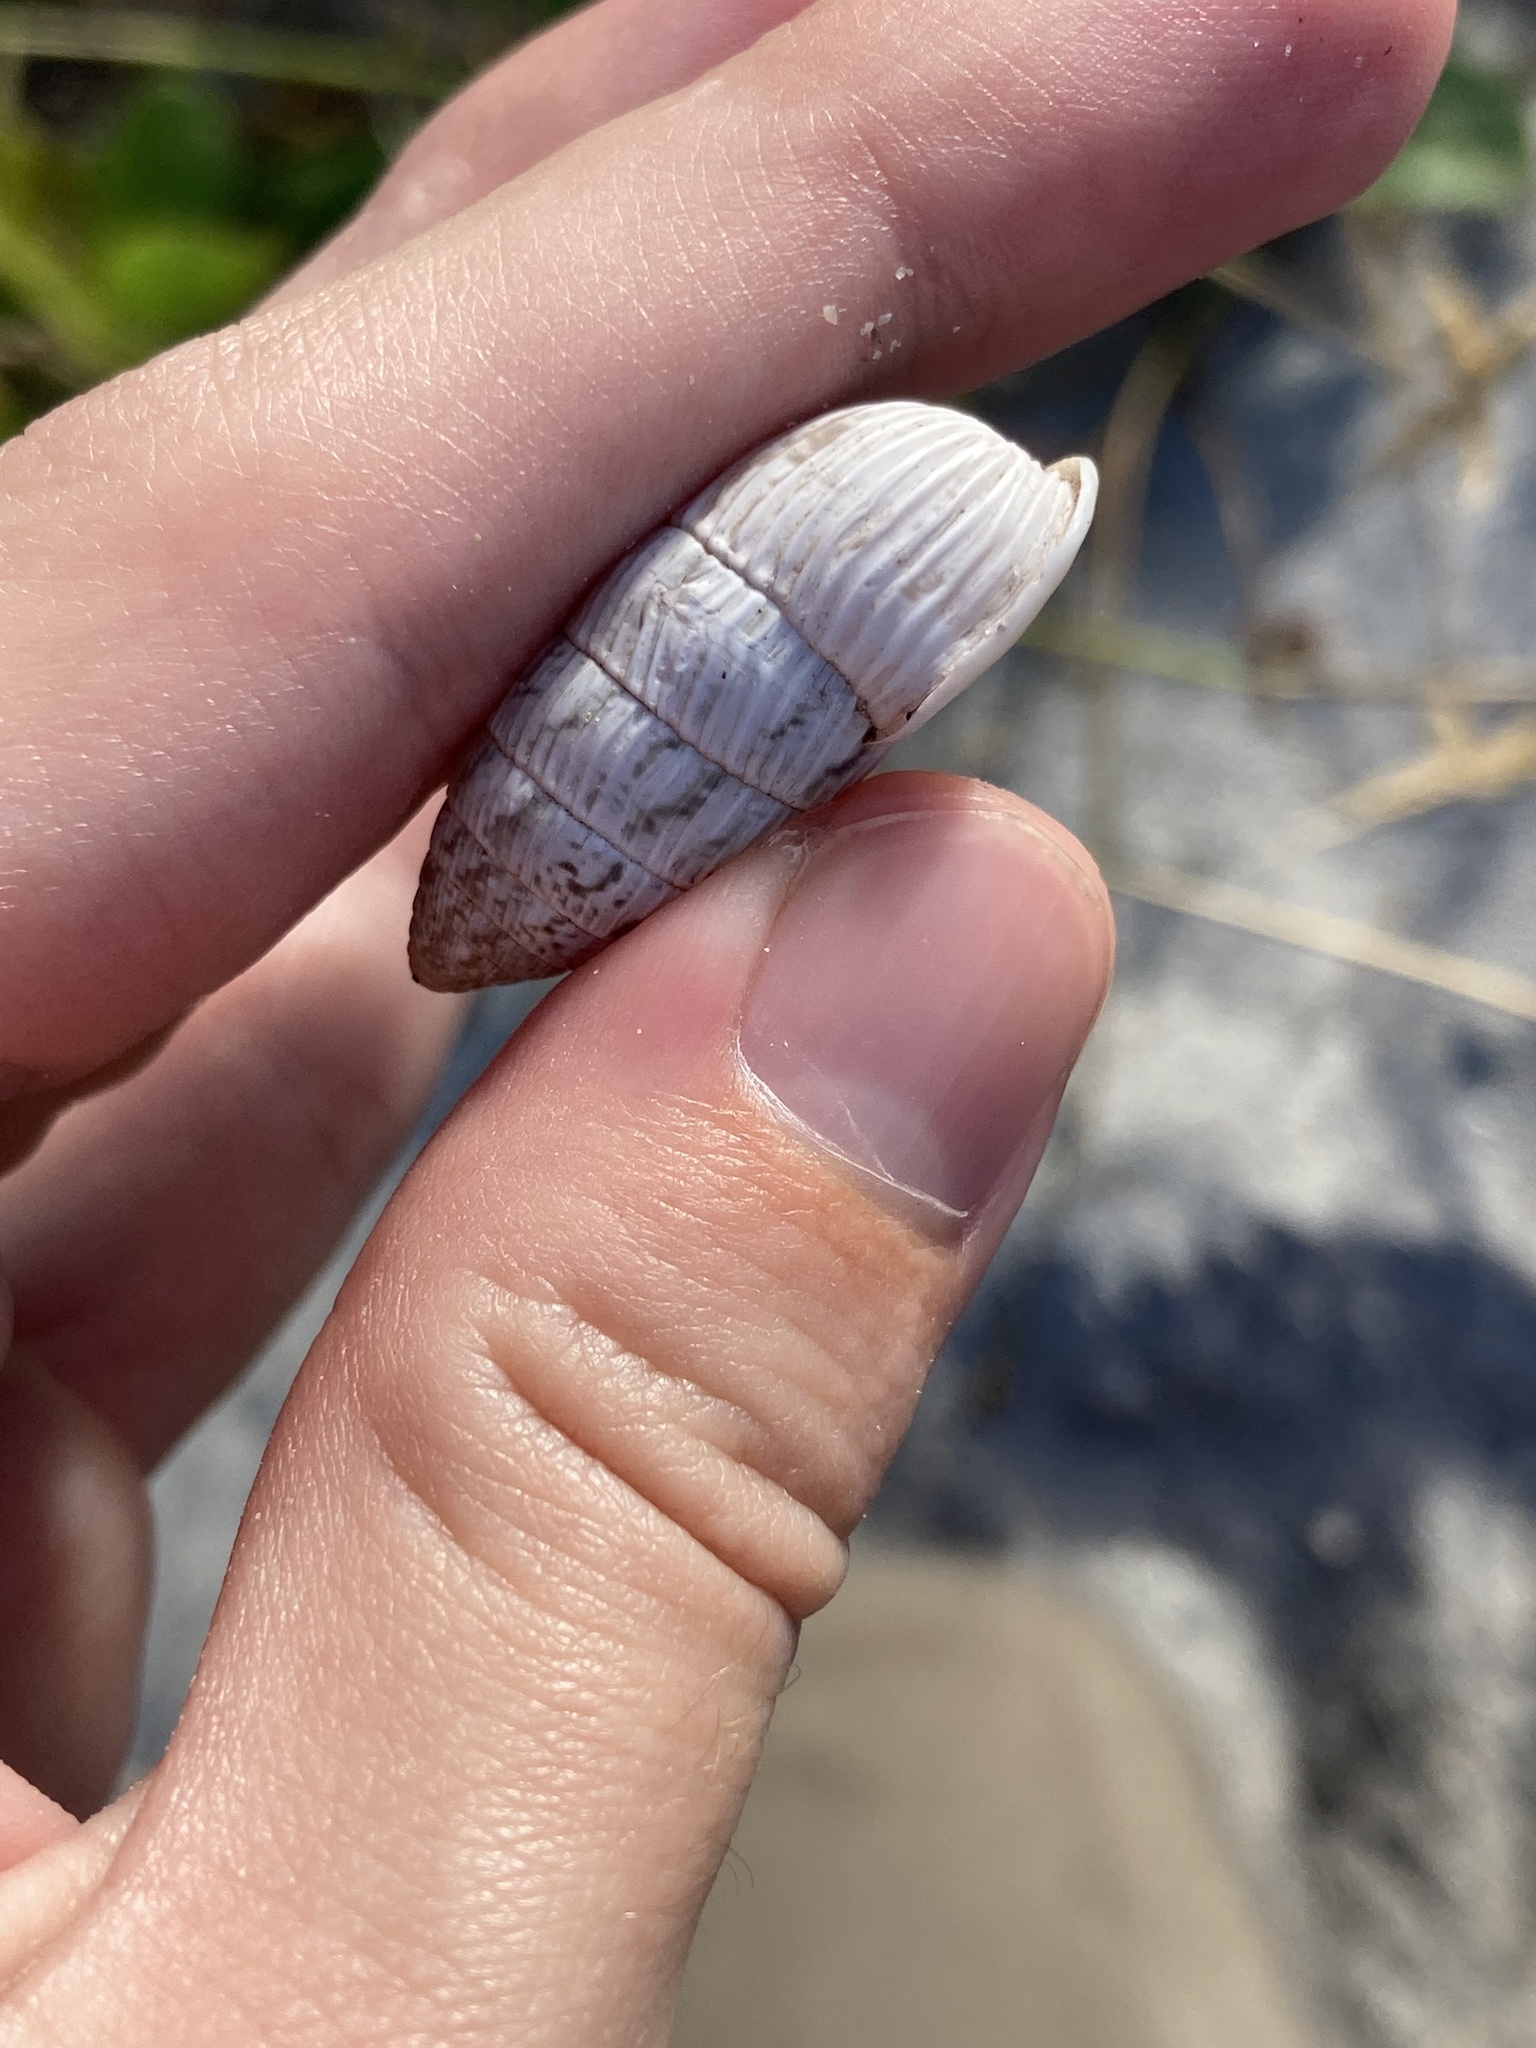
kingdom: Animalia
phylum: Mollusca
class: Gastropoda
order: Stylommatophora
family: Cerionidae
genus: Cerion
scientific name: Cerion tridentatum
